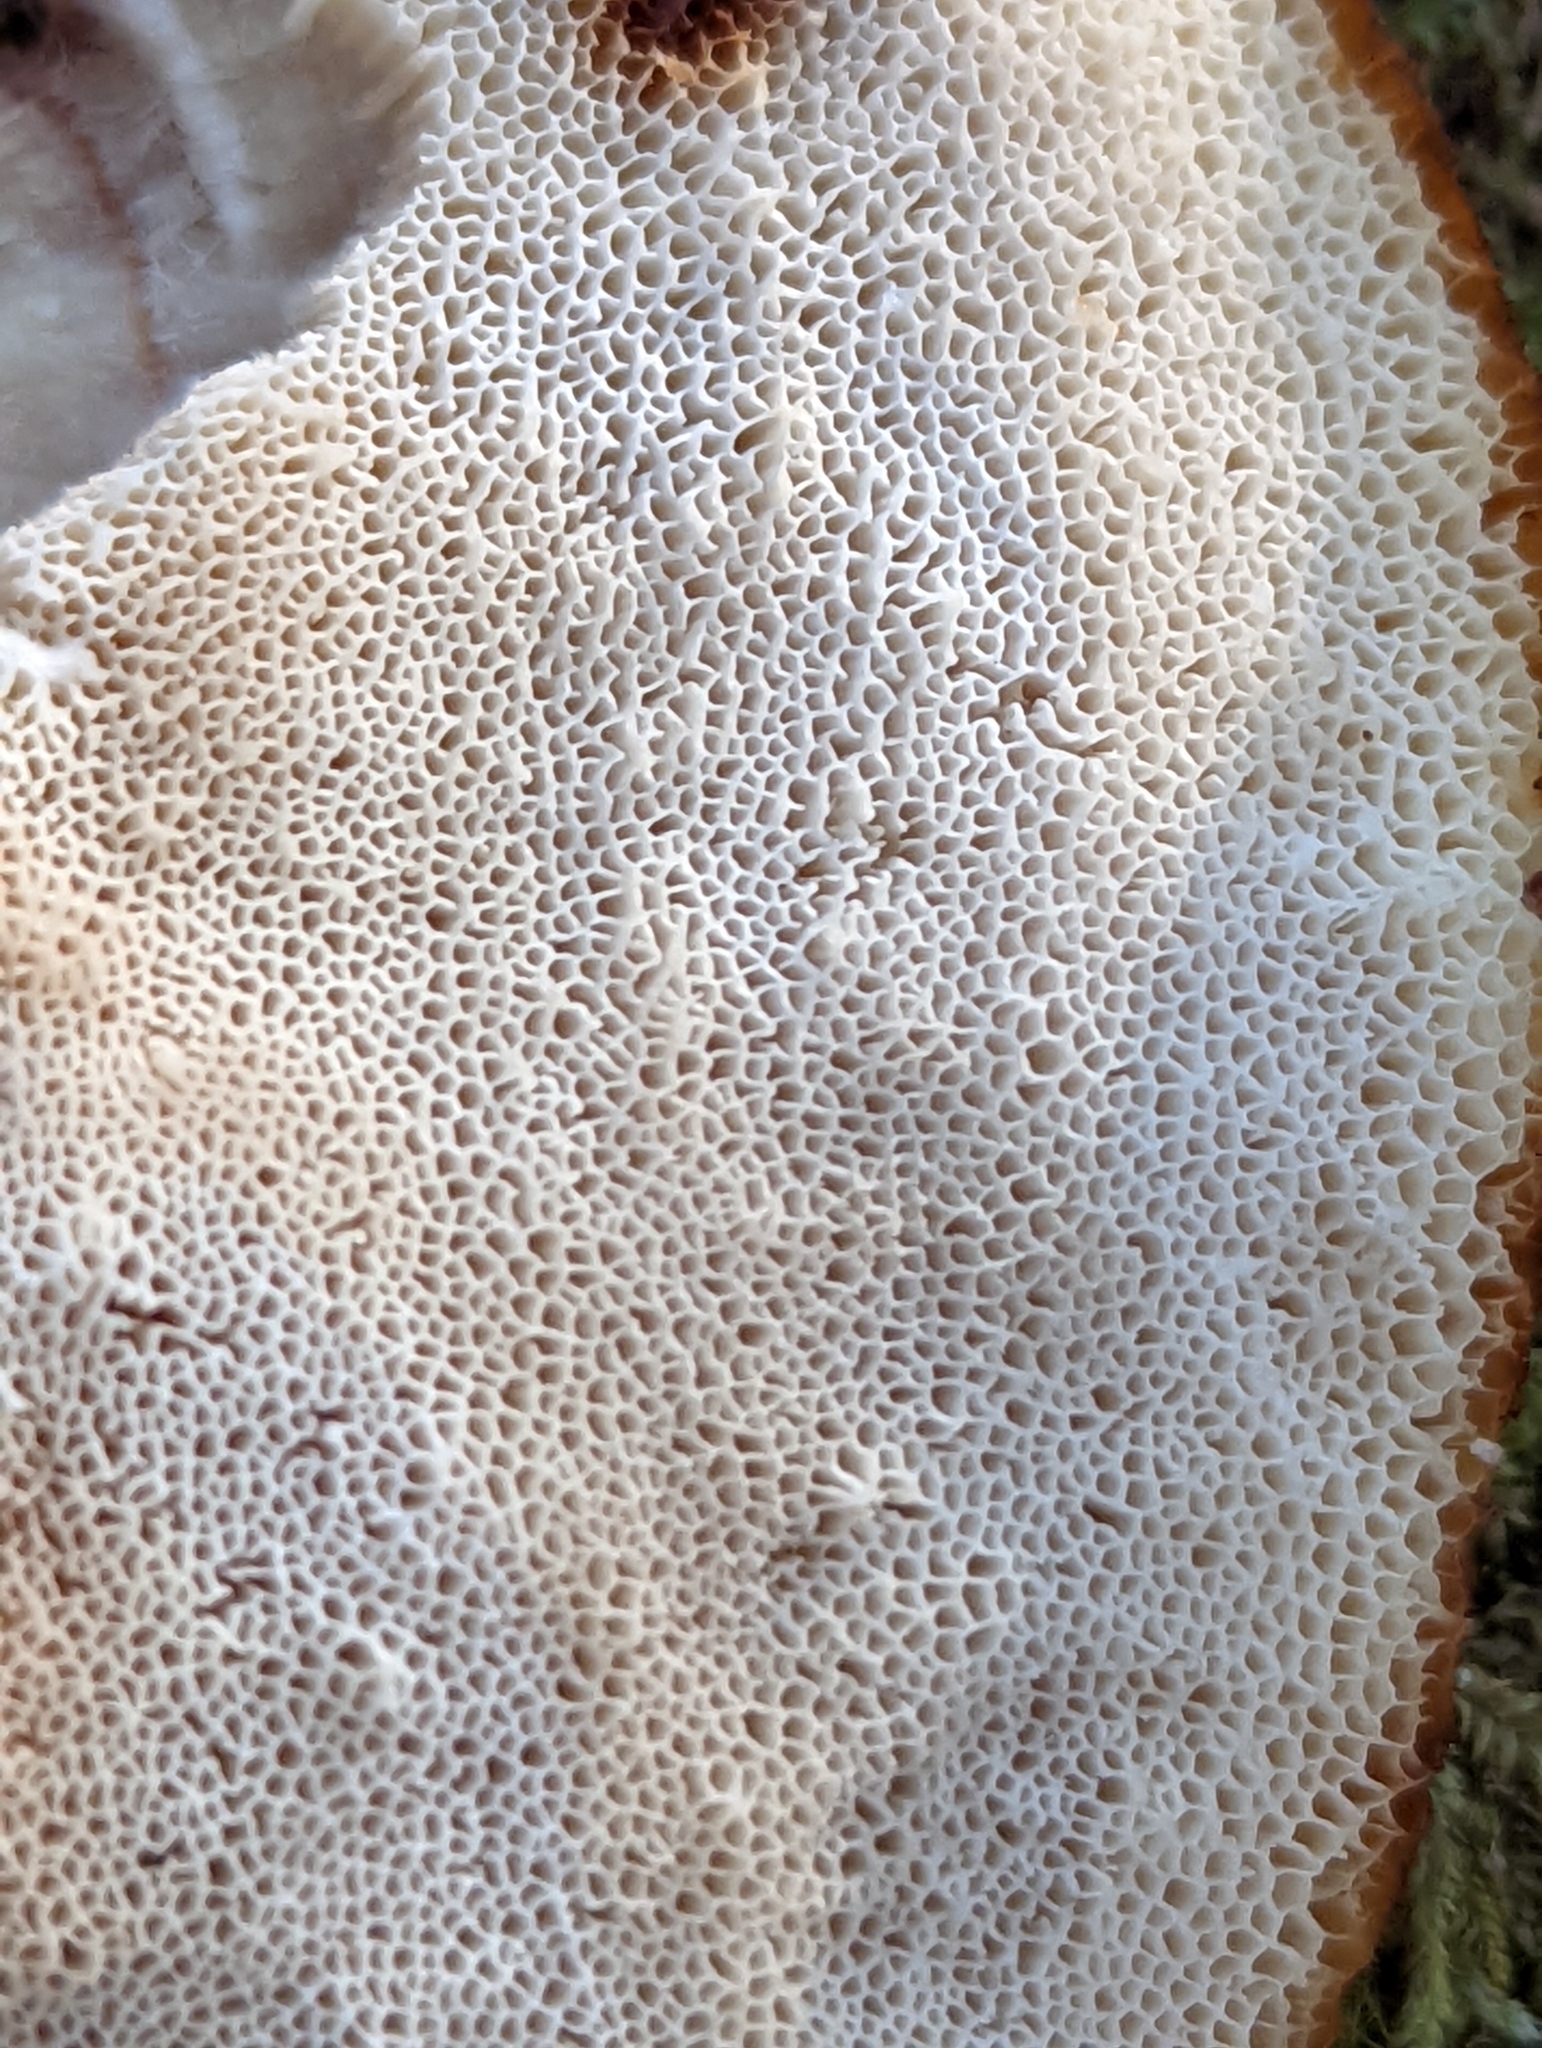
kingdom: Fungi
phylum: Basidiomycota
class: Agaricomycetes
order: Polyporales
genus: Fuscopostia
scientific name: Fuscopostia fragilis
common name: Brown-staining cheese polypore
